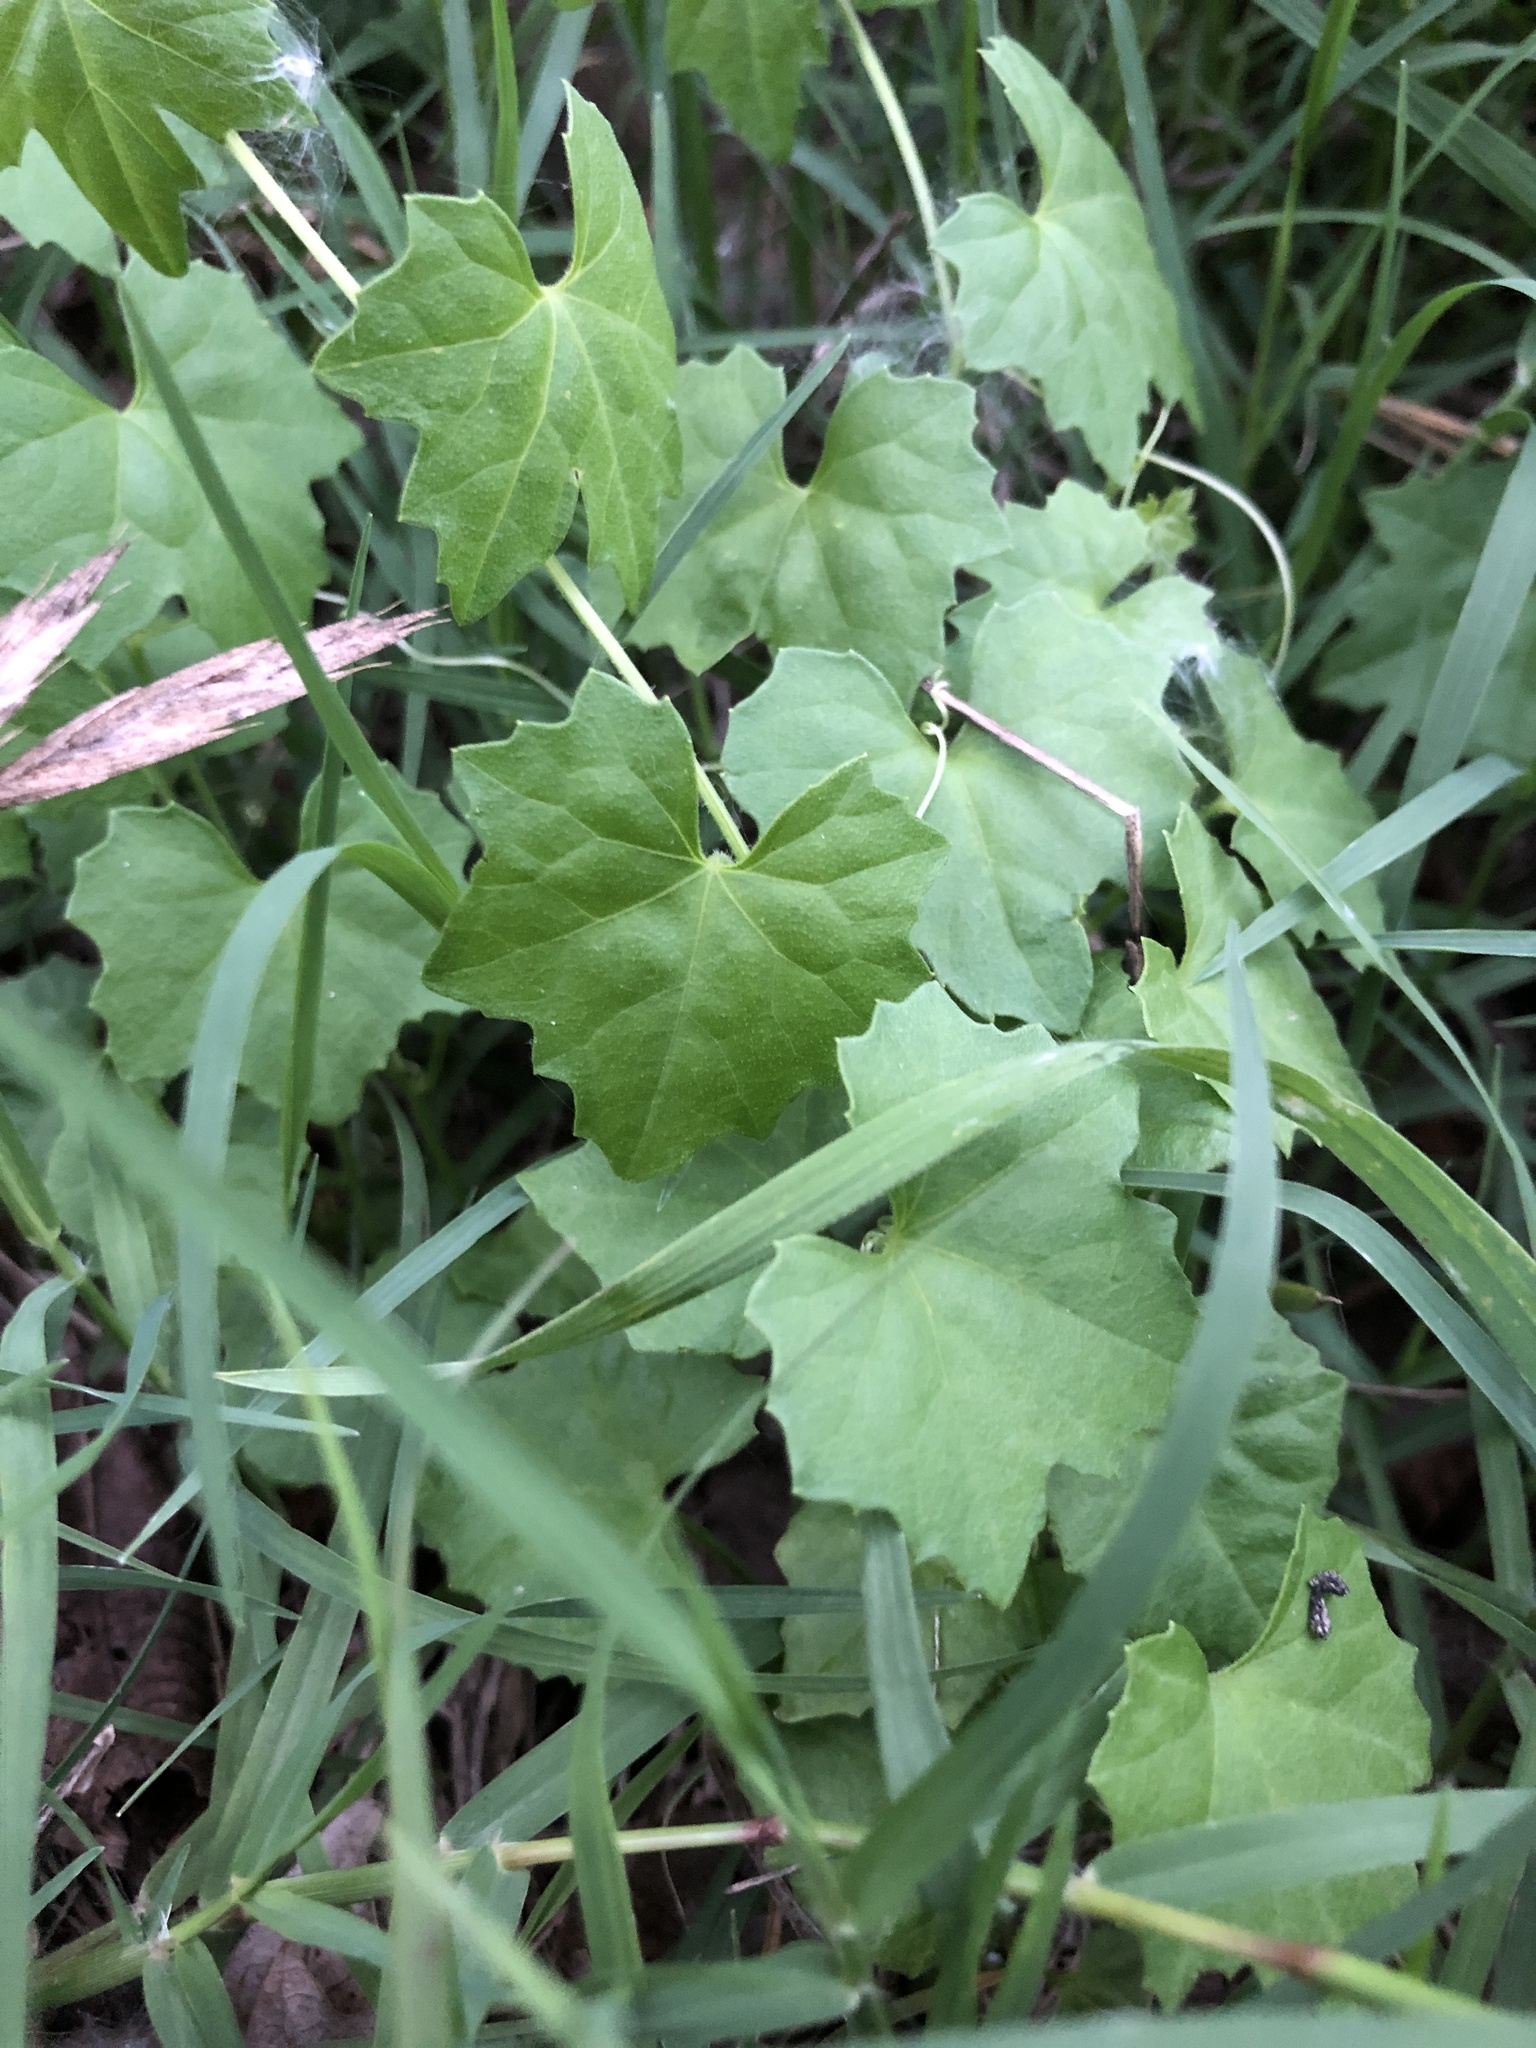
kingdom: Plantae
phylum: Tracheophyta
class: Magnoliopsida
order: Cucurbitales
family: Cucurbitaceae
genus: Melothria
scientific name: Melothria pendula
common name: Creeping-cucumber
